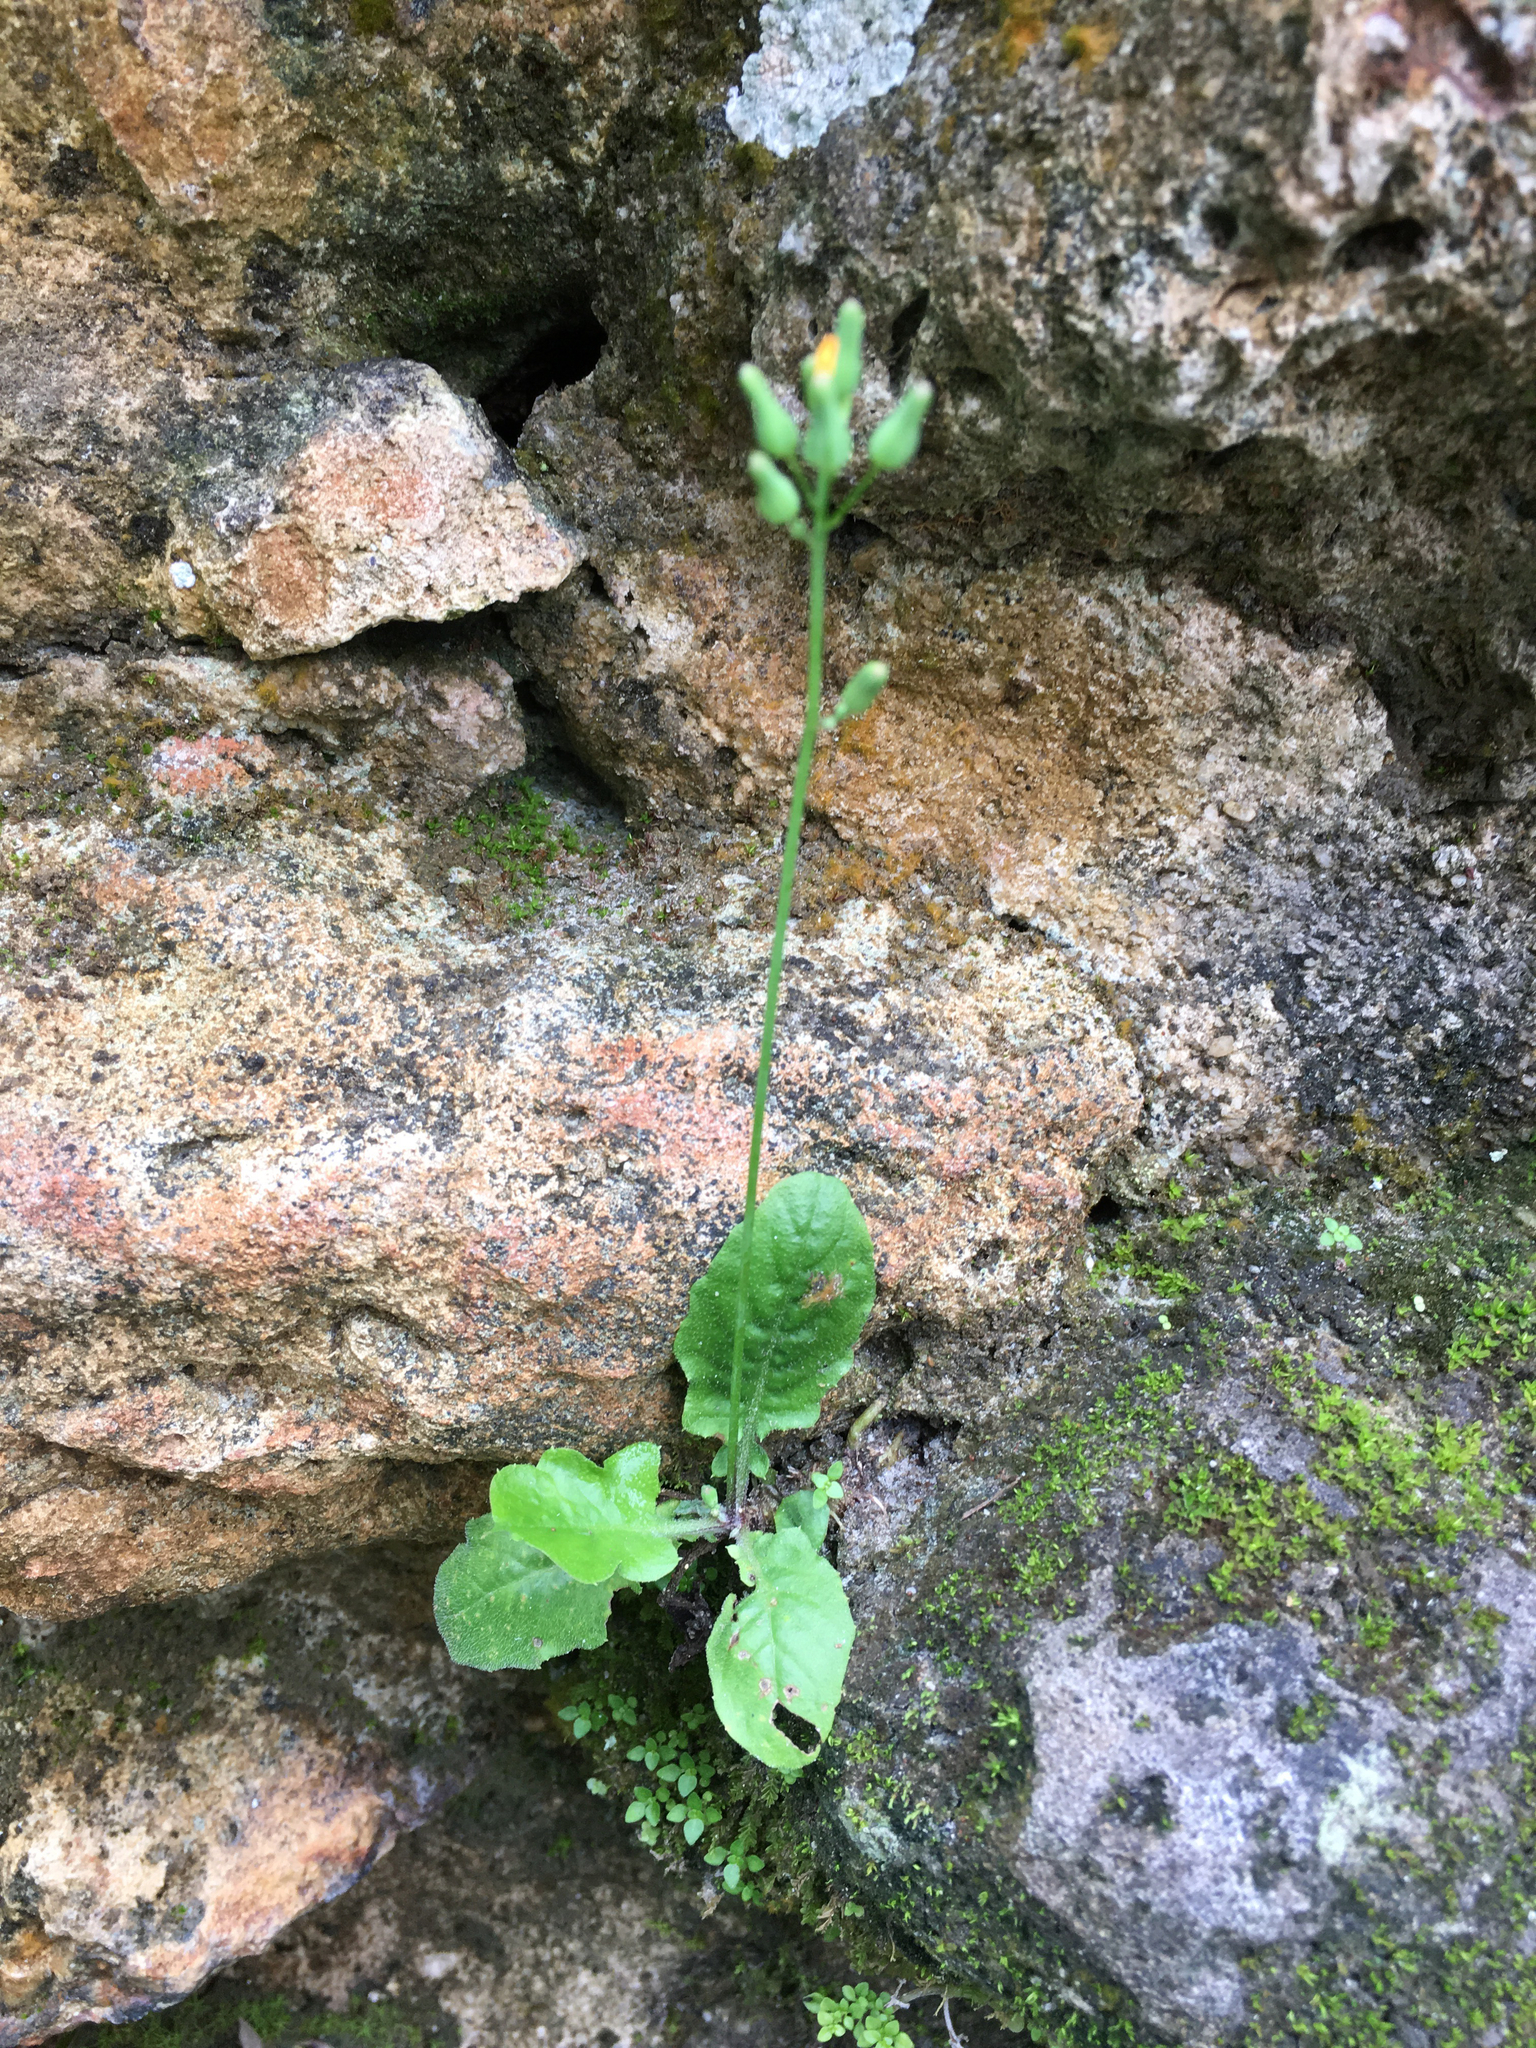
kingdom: Plantae
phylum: Tracheophyta
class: Magnoliopsida
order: Asterales
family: Asteraceae
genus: Youngia
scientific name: Youngia japonica
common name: Oriental false hawksbeard
